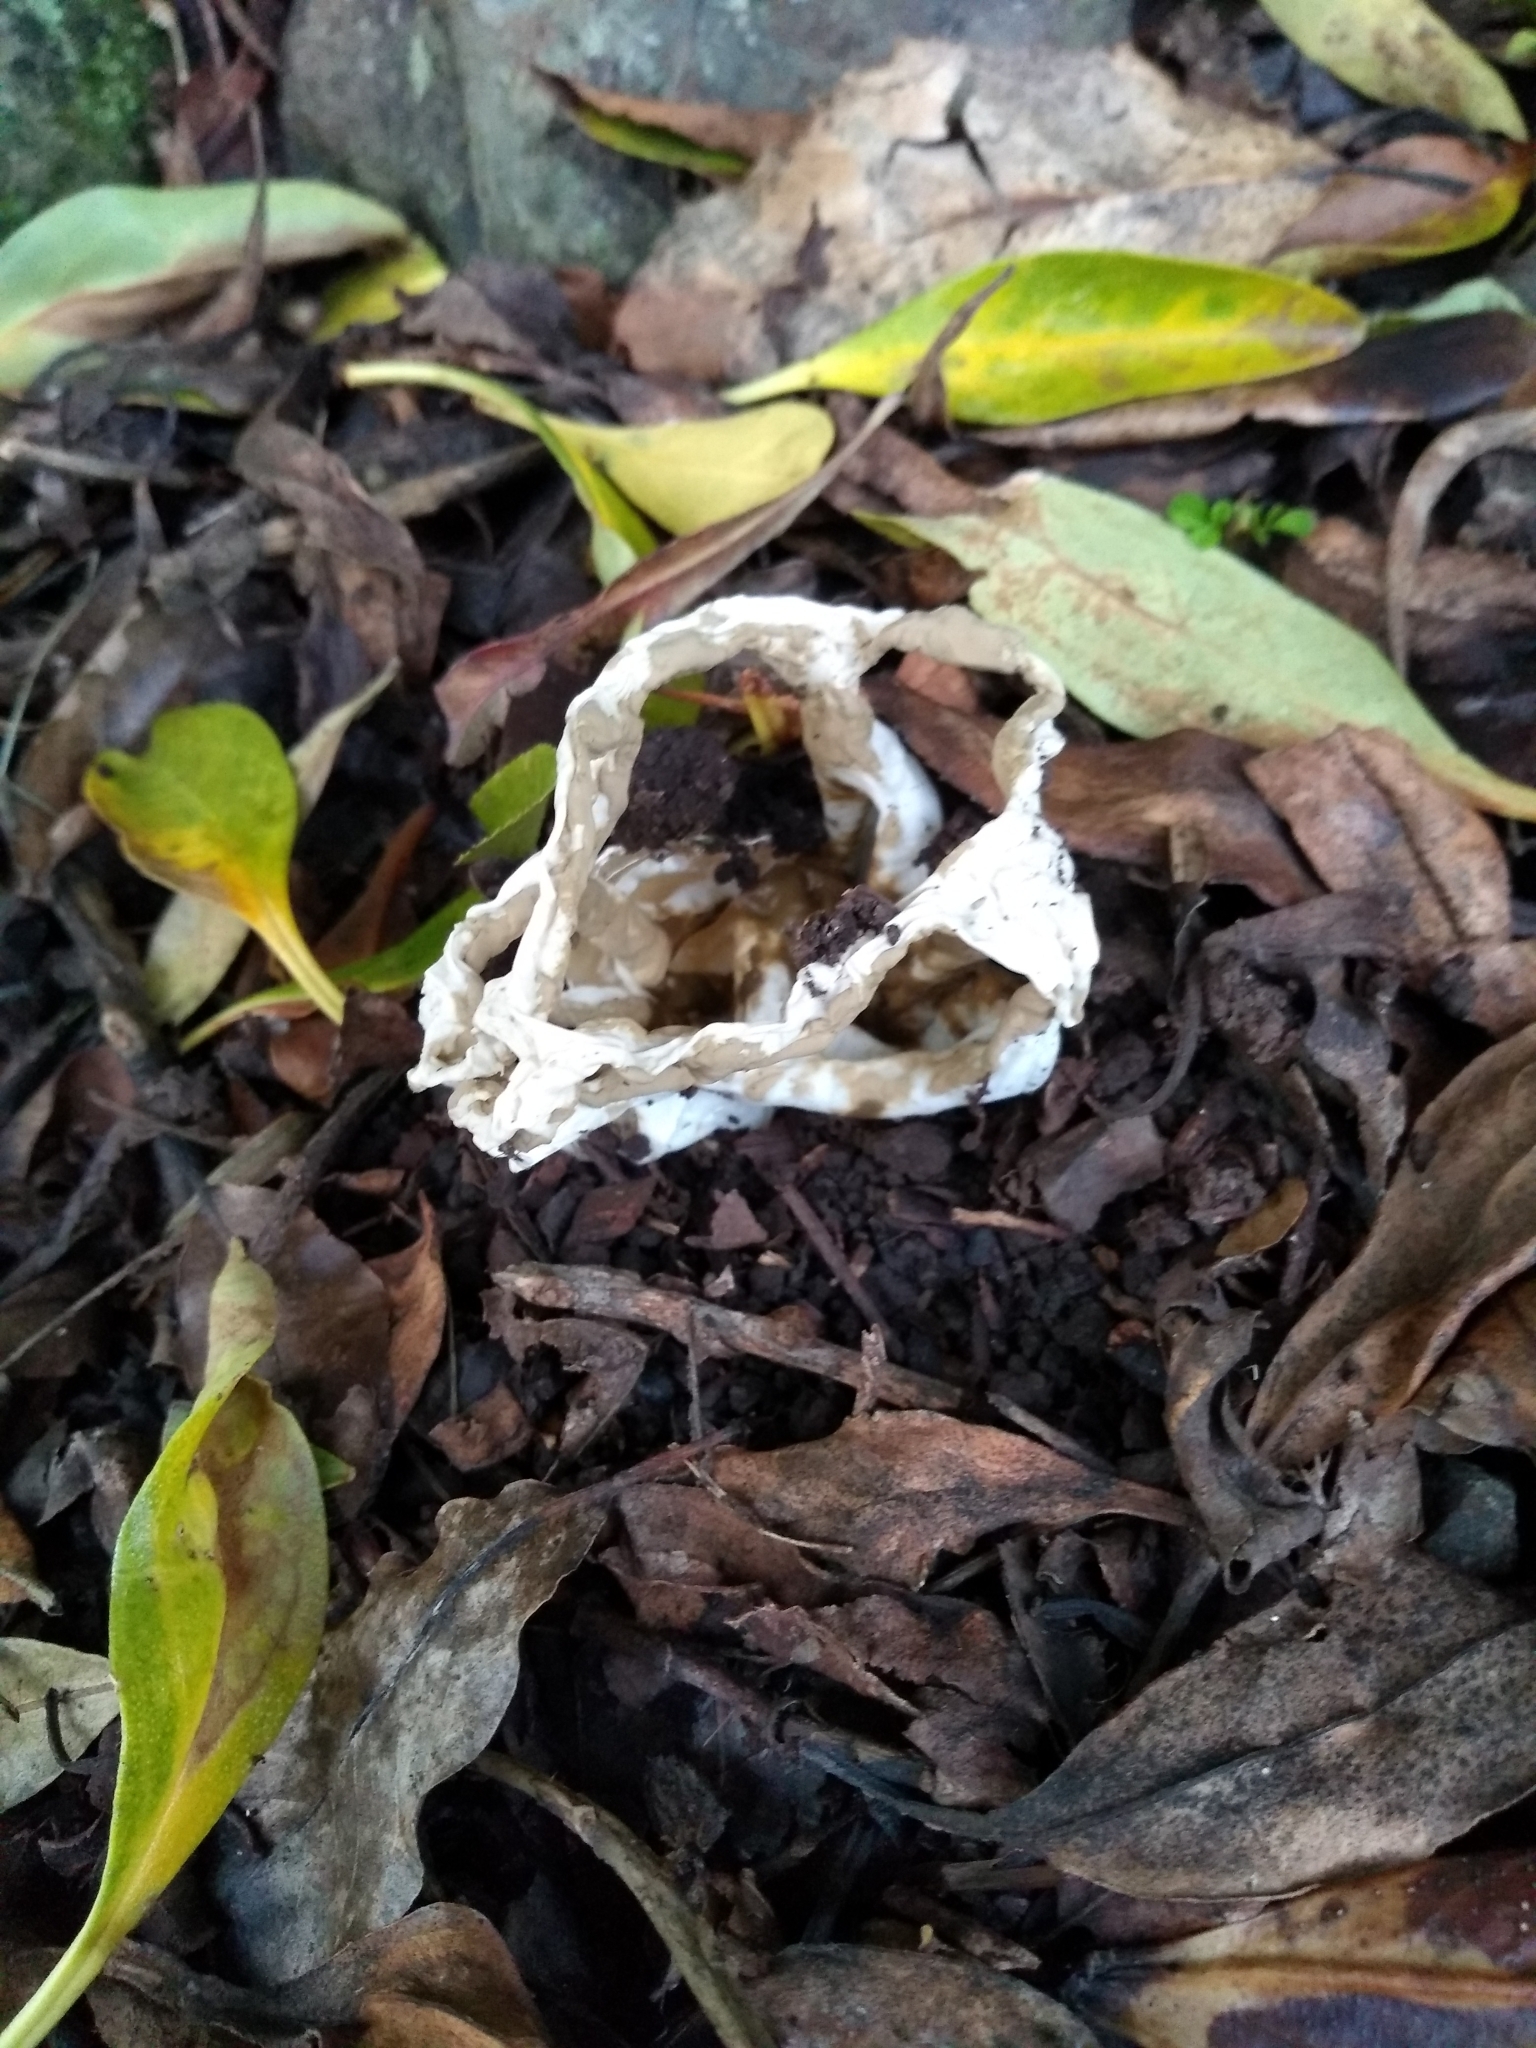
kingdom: Fungi
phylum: Basidiomycota
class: Agaricomycetes
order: Phallales
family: Phallaceae
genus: Ileodictyon
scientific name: Ileodictyon cibarium
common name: Basket fungus
